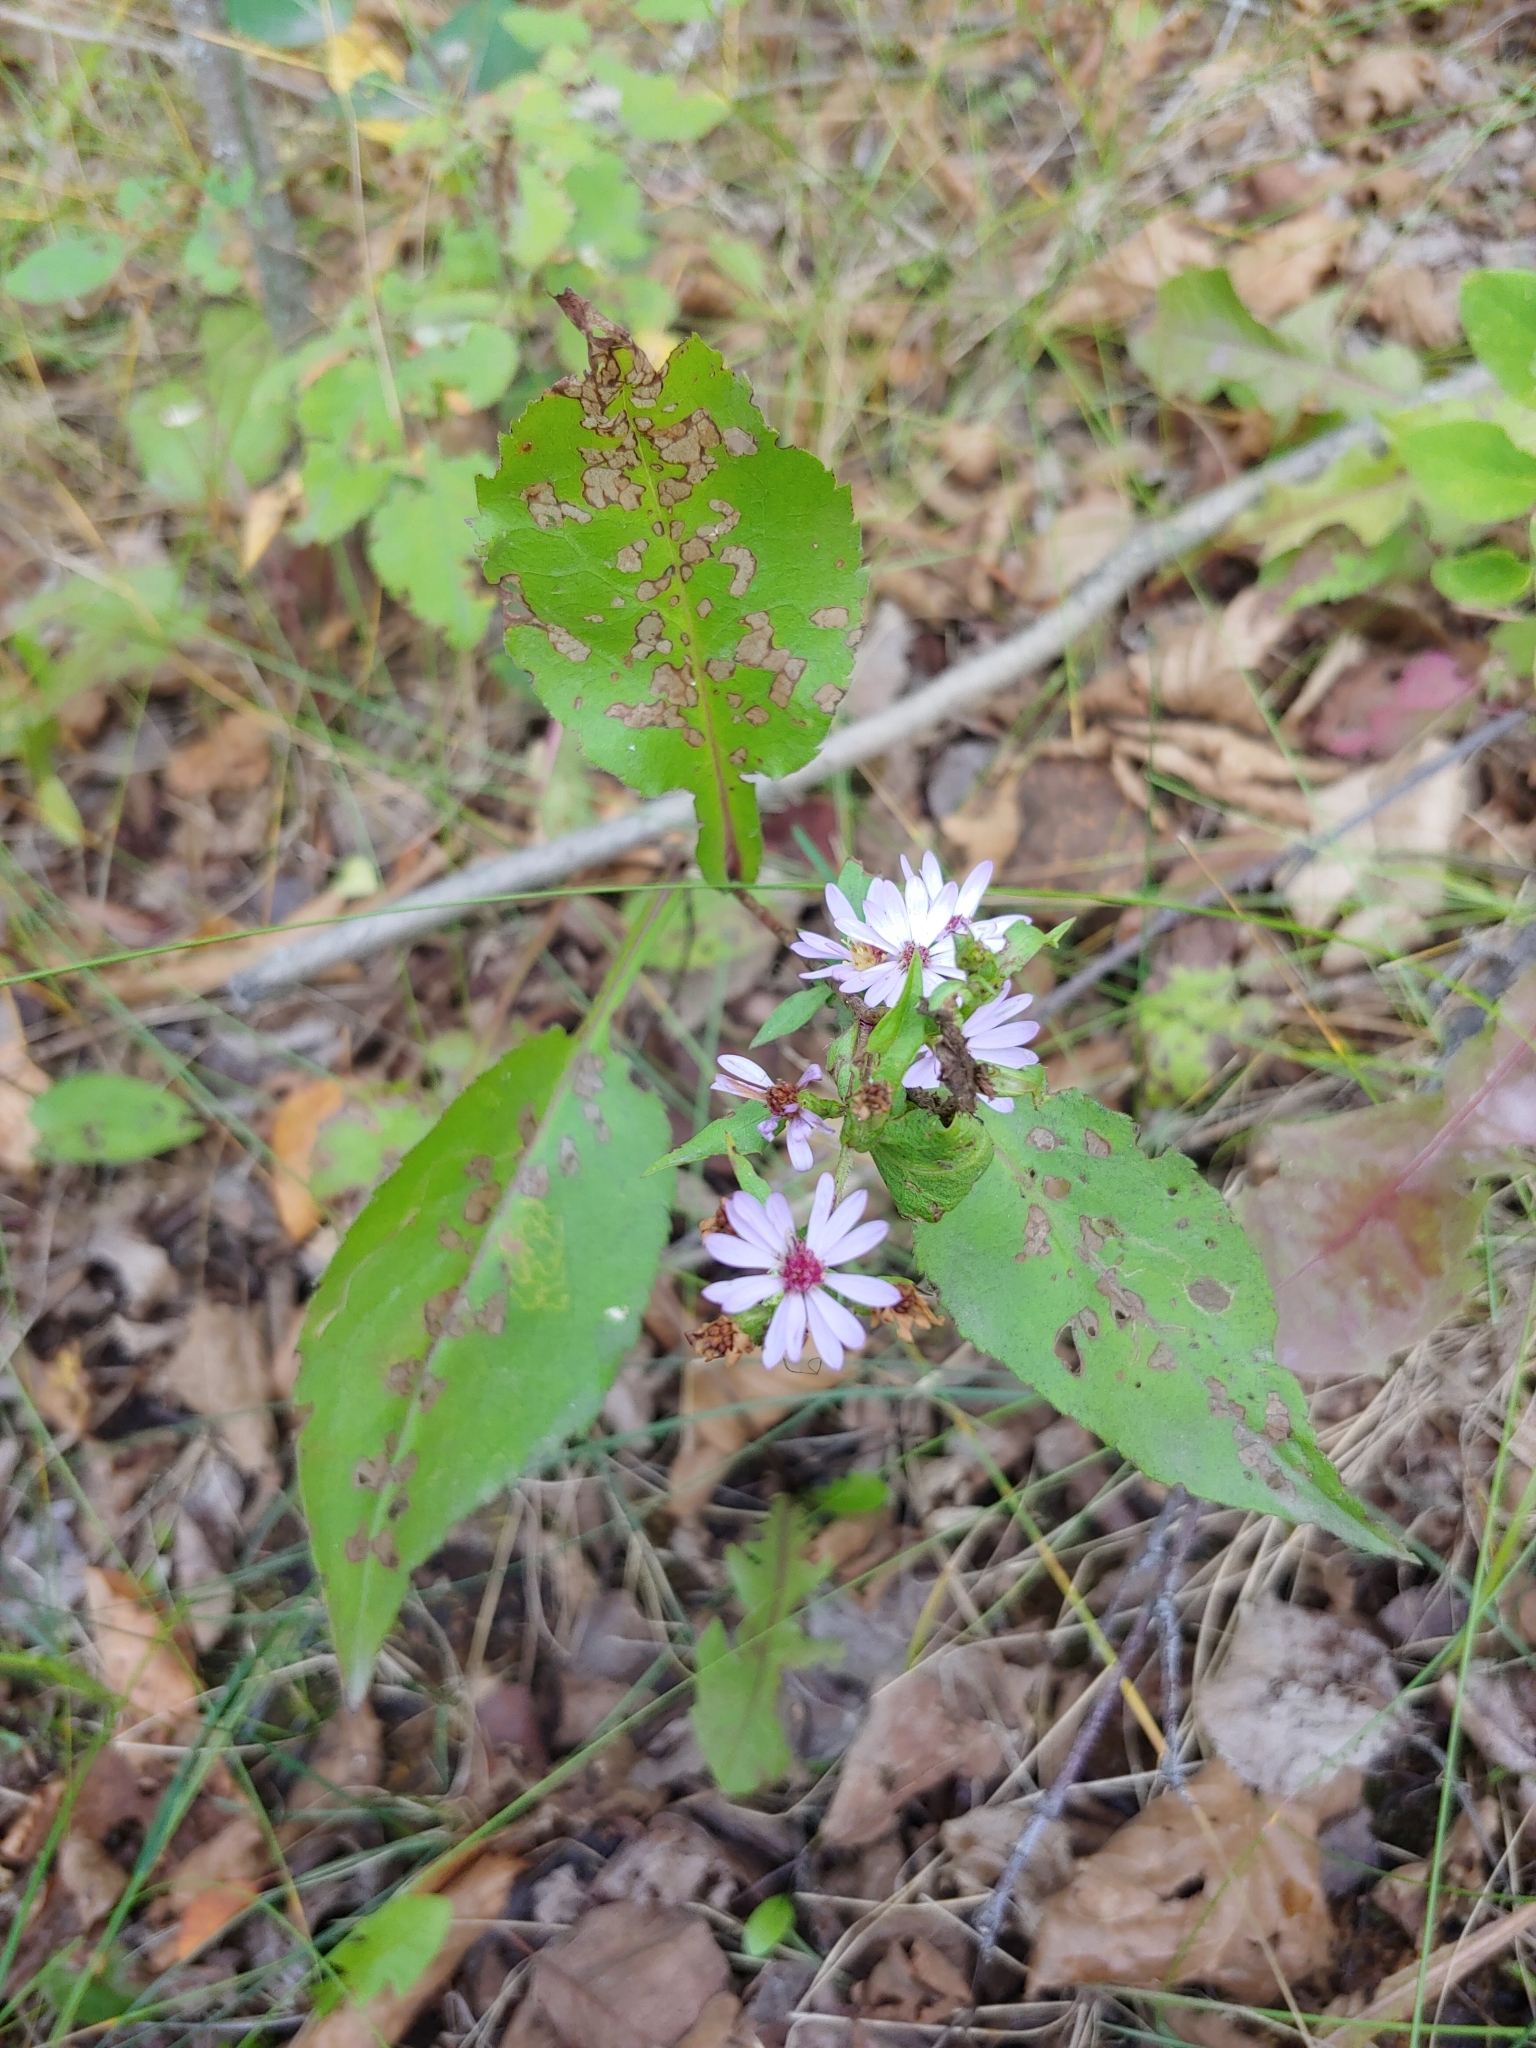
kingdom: Plantae
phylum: Tracheophyta
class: Magnoliopsida
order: Asterales
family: Asteraceae
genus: Symphyotrichum
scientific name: Symphyotrichum ciliolatum
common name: Fringed blue aster
